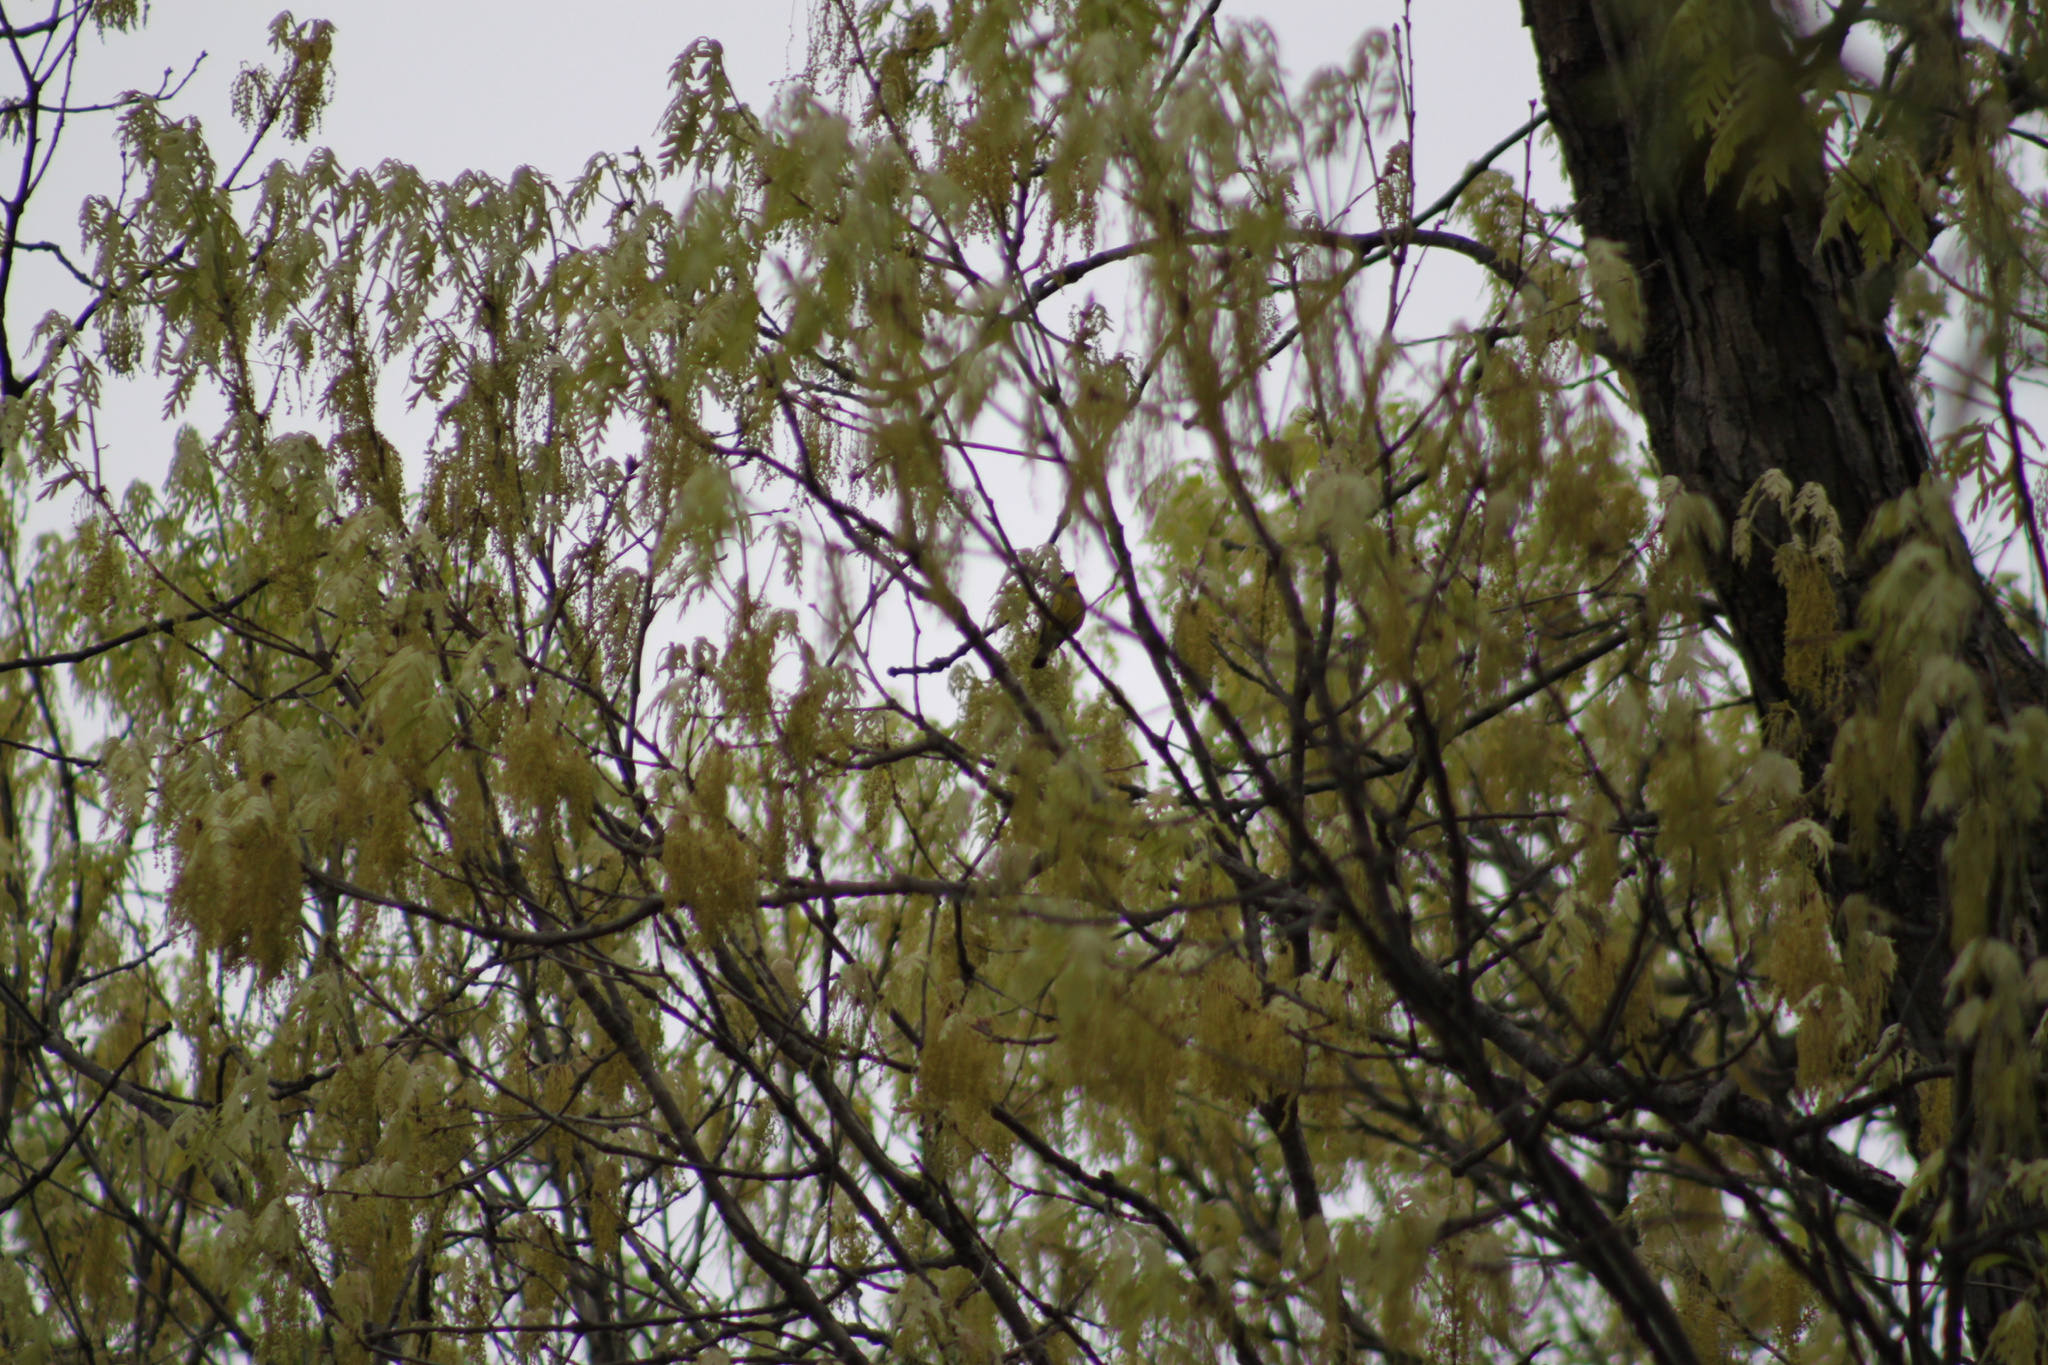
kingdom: Animalia
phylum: Chordata
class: Aves
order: Passeriformes
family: Parulidae
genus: Setophaga
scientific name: Setophaga magnolia
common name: Magnolia warbler
